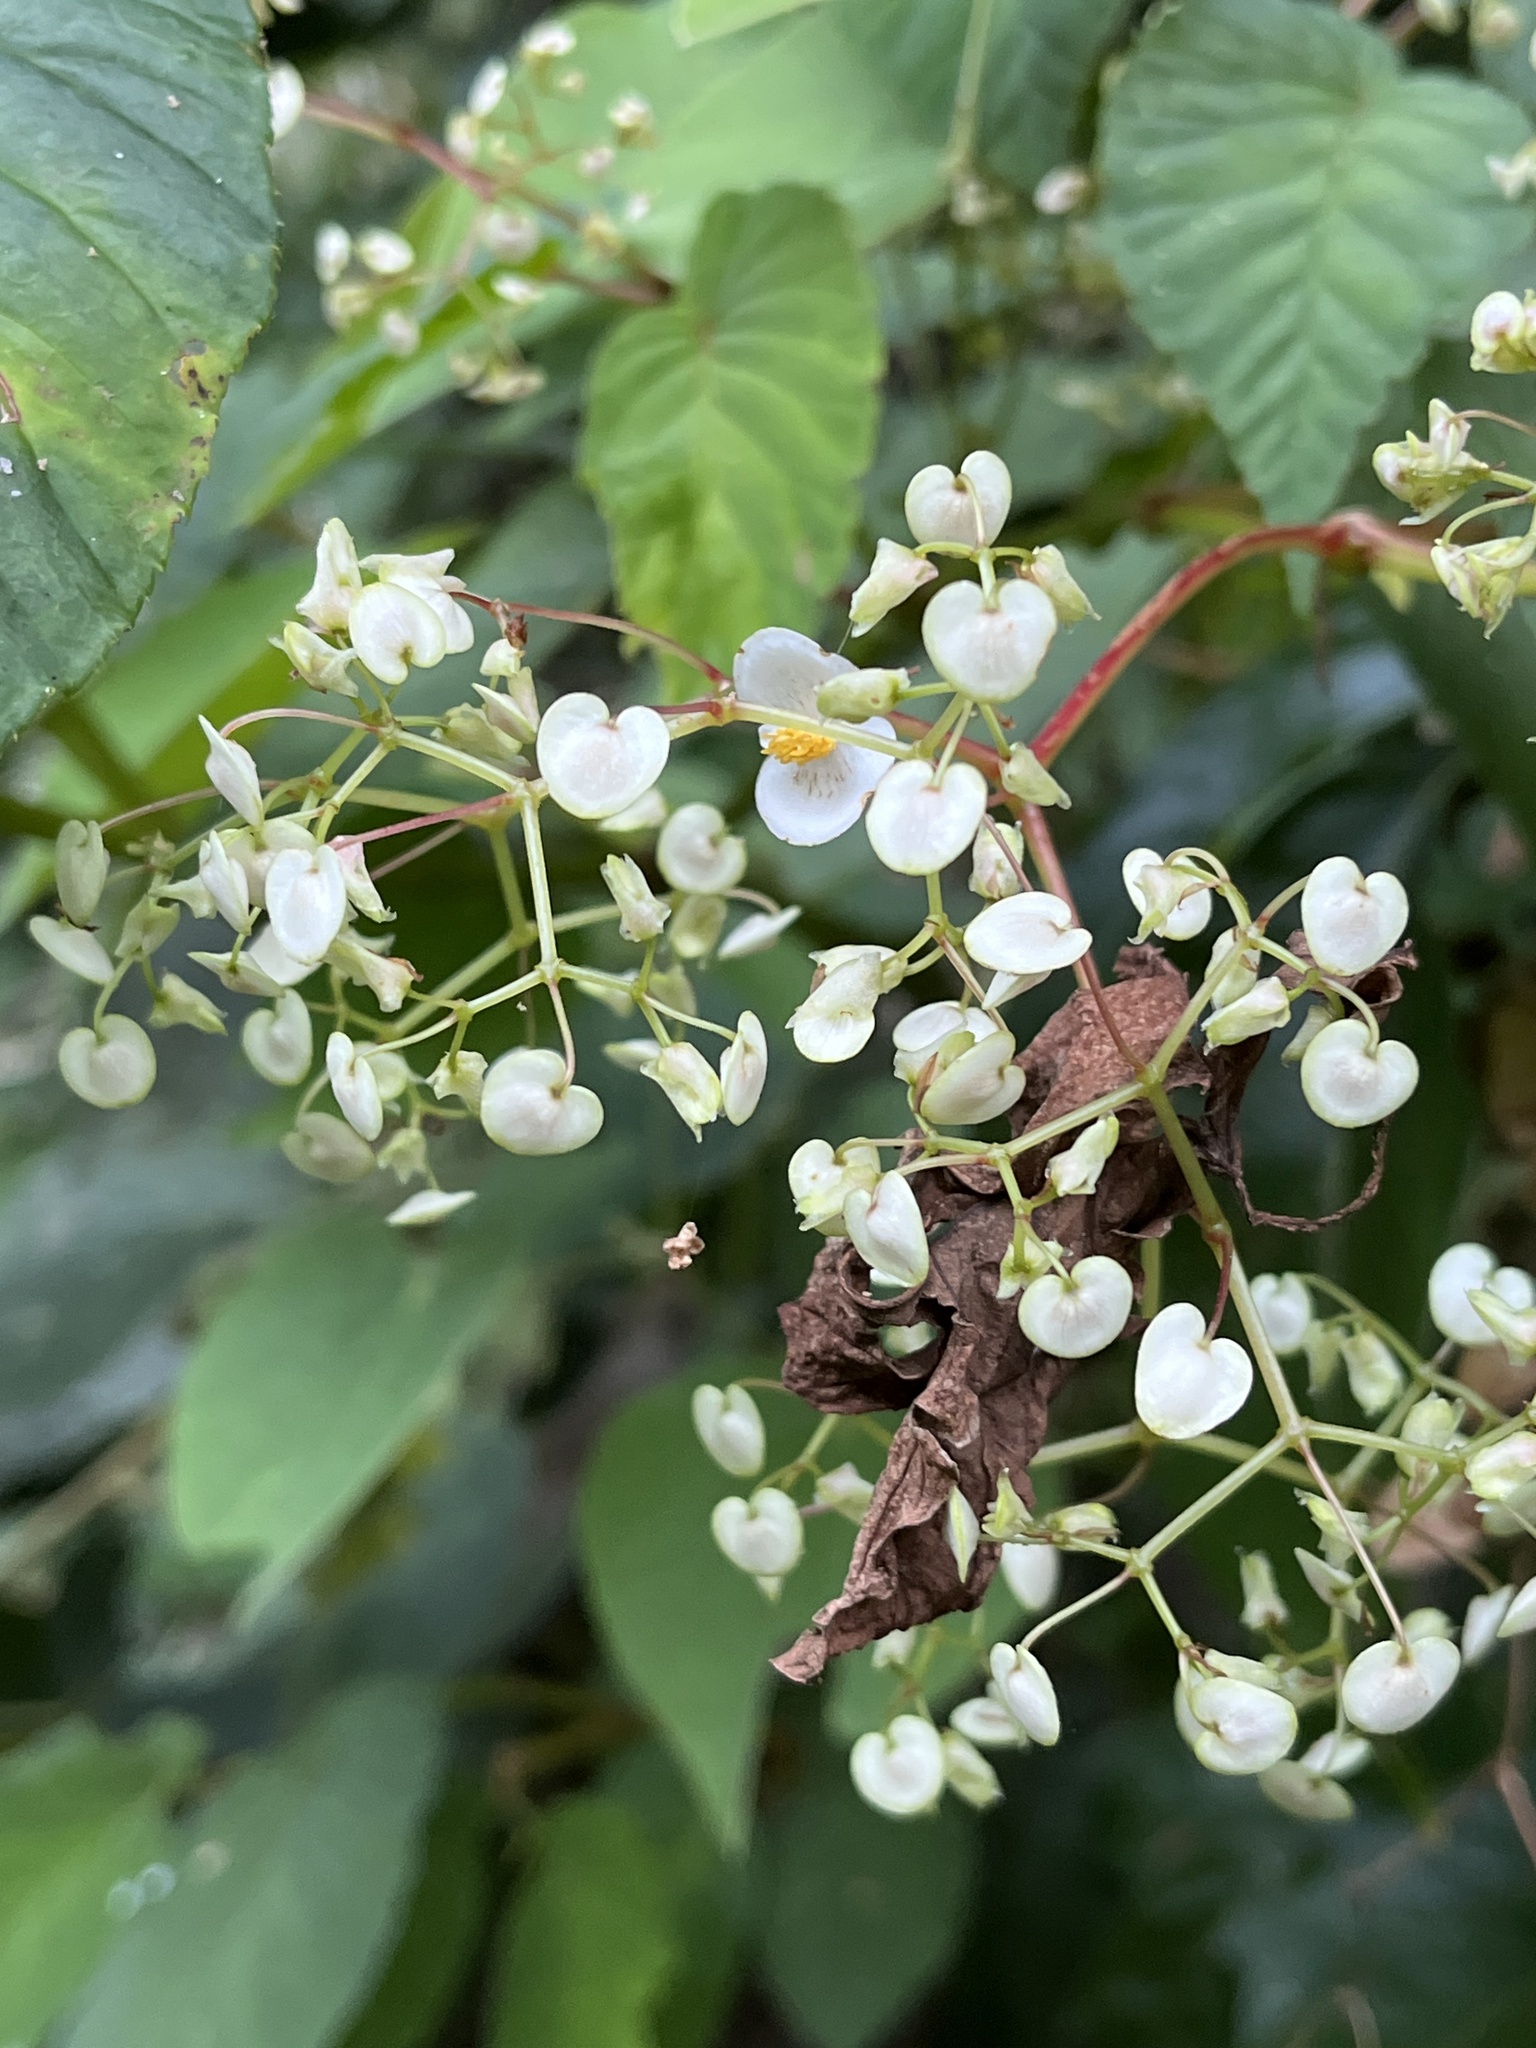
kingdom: Plantae
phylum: Tracheophyta
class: Magnoliopsida
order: Cucurbitales
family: Begoniaceae
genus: Begonia
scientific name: Begonia convallariodora
